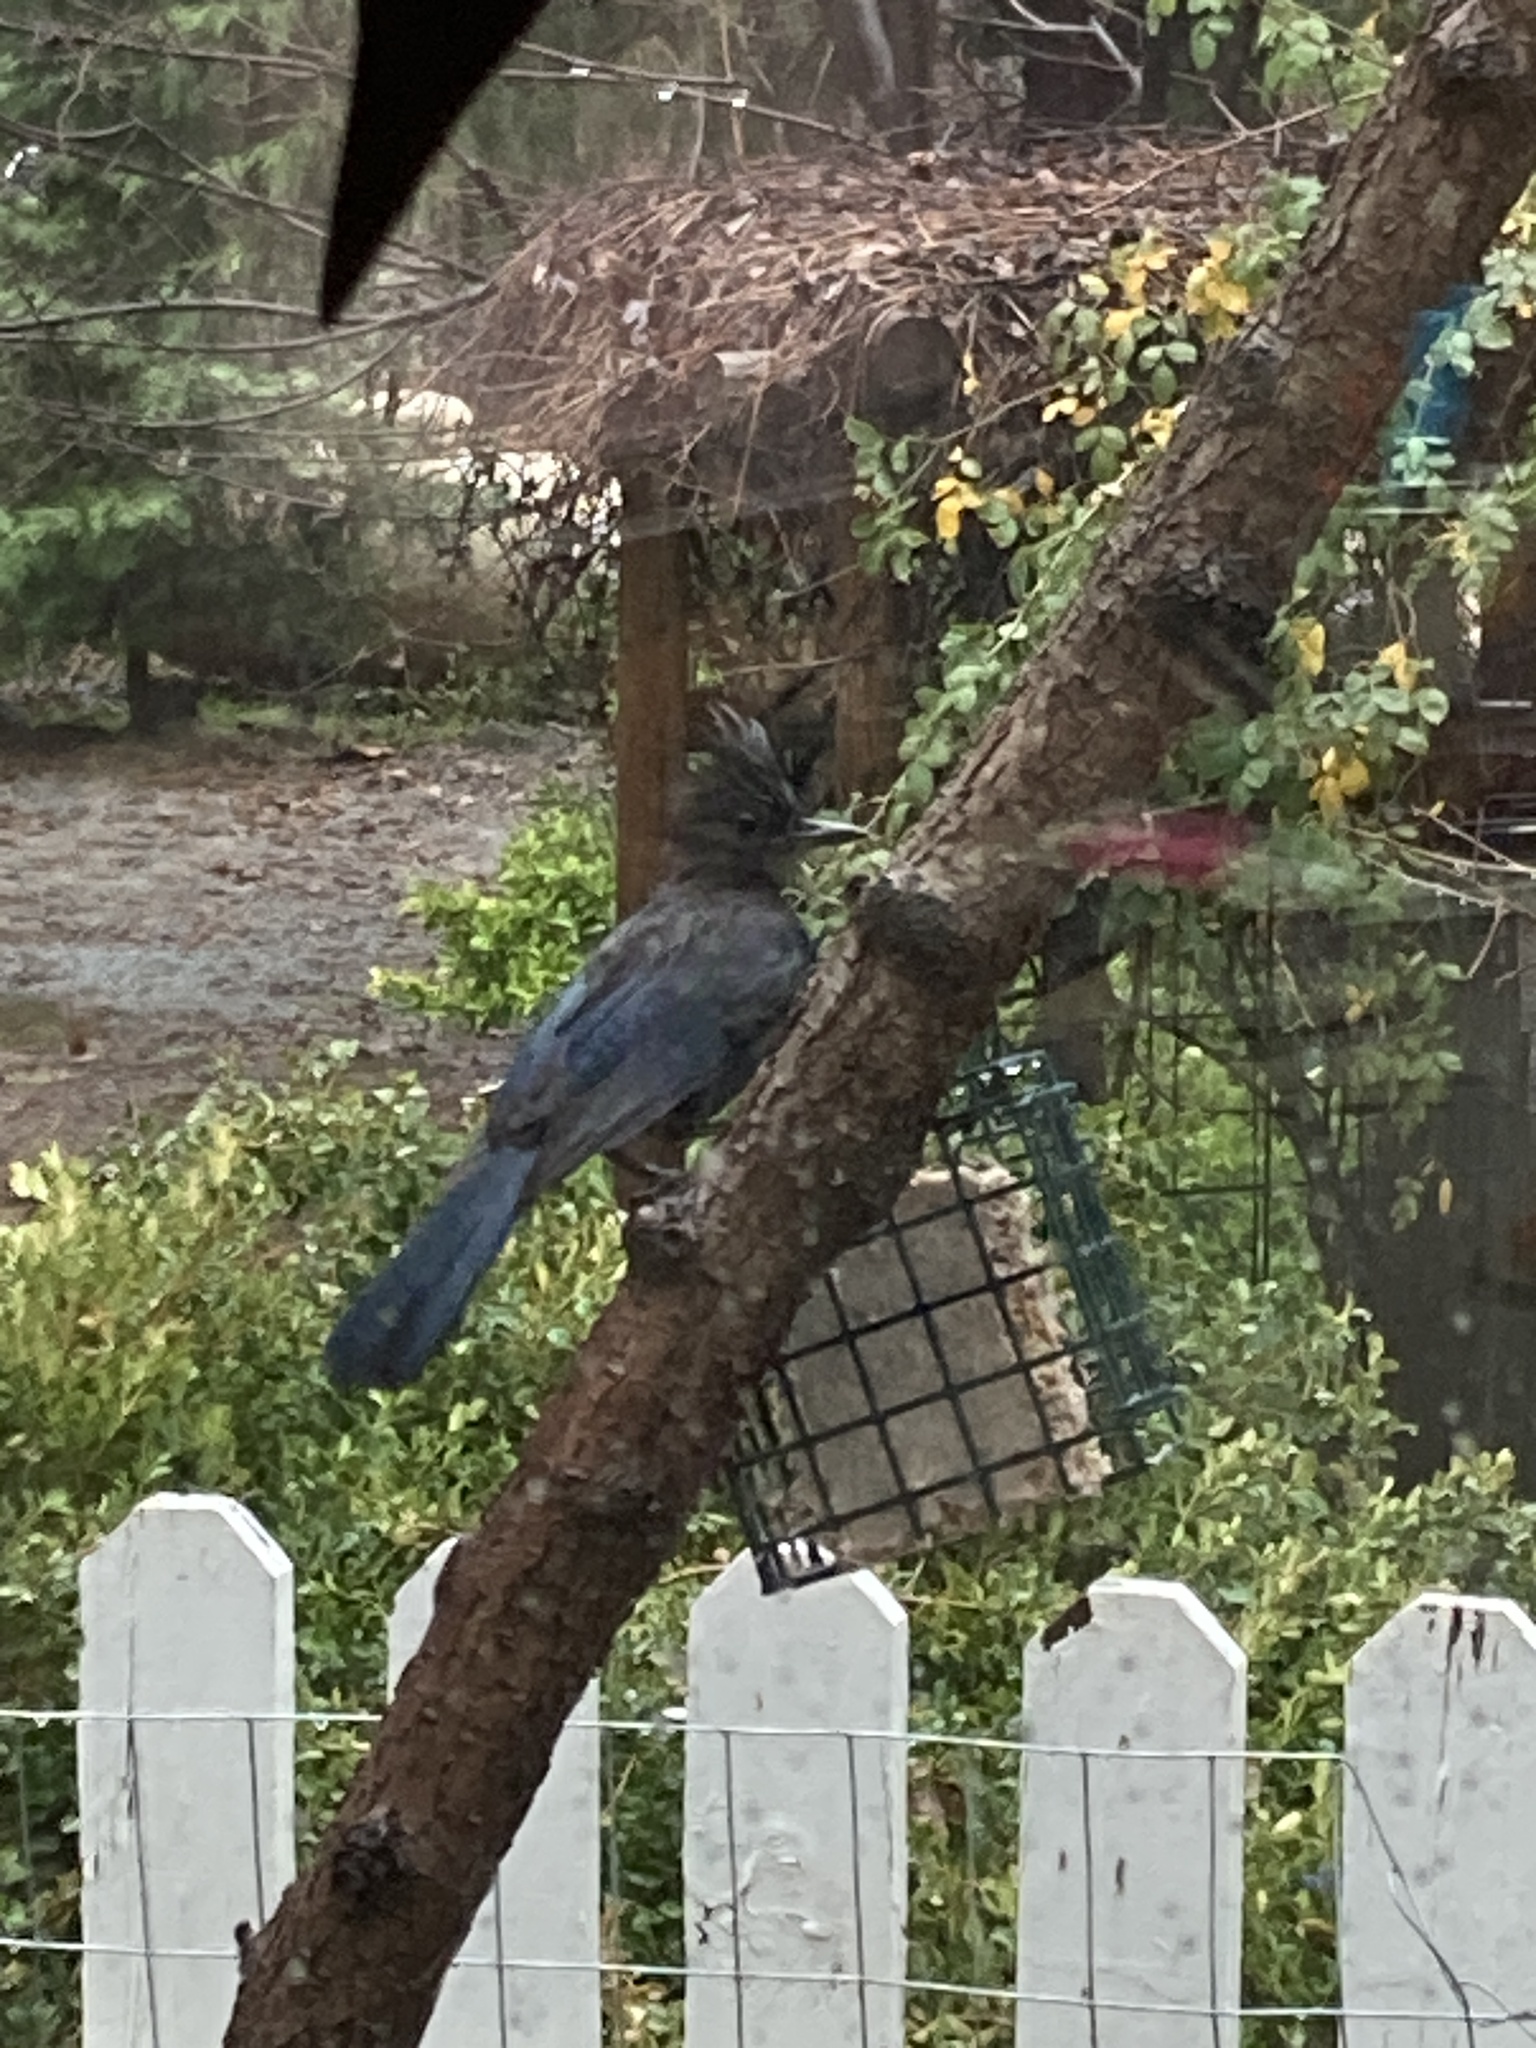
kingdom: Animalia
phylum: Chordata
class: Aves
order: Passeriformes
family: Corvidae
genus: Cyanocitta
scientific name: Cyanocitta stelleri
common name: Steller's jay
